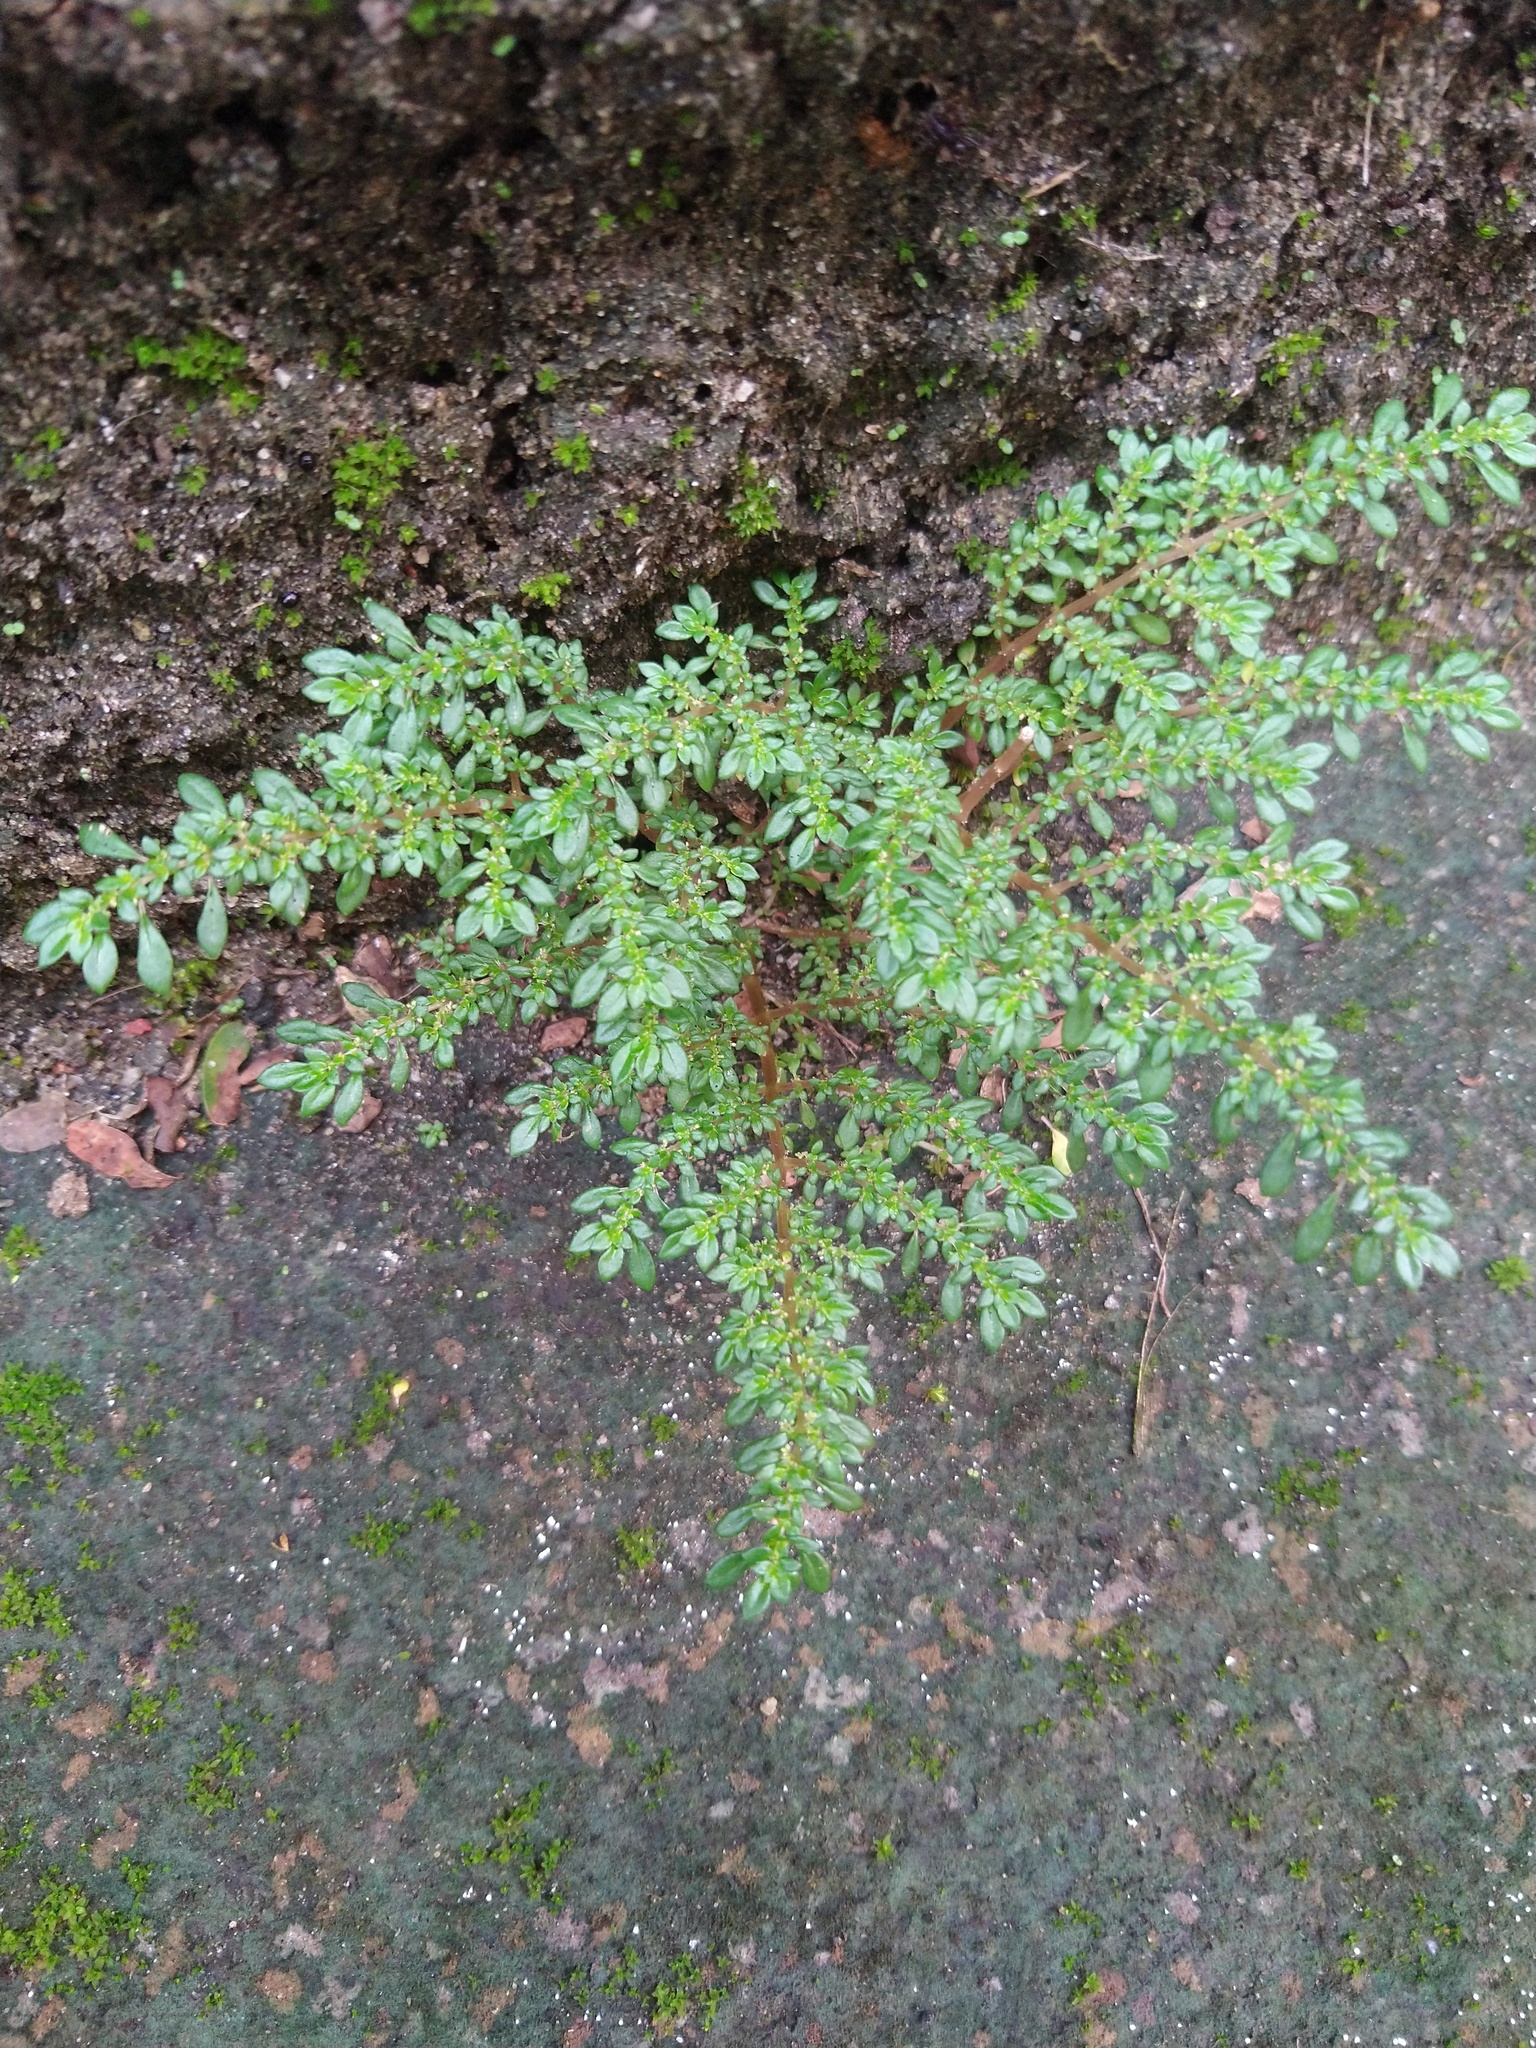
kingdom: Plantae
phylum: Tracheophyta
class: Magnoliopsida
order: Rosales
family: Urticaceae
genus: Pilea
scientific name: Pilea microphylla
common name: Artillery-plant
